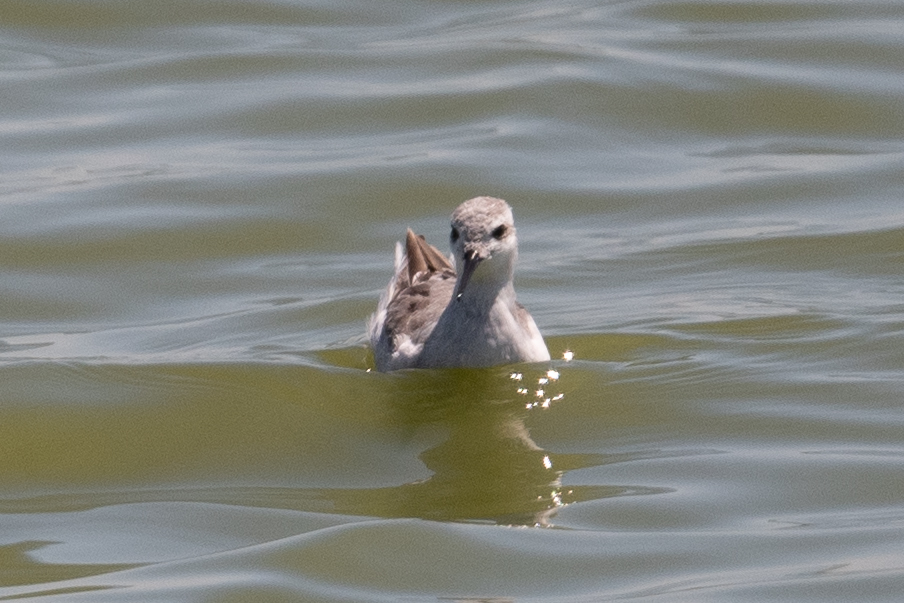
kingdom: Animalia
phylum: Chordata
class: Aves
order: Charadriiformes
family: Scolopacidae
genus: Phalaropus
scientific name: Phalaropus tricolor
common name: Wilson's phalarope
